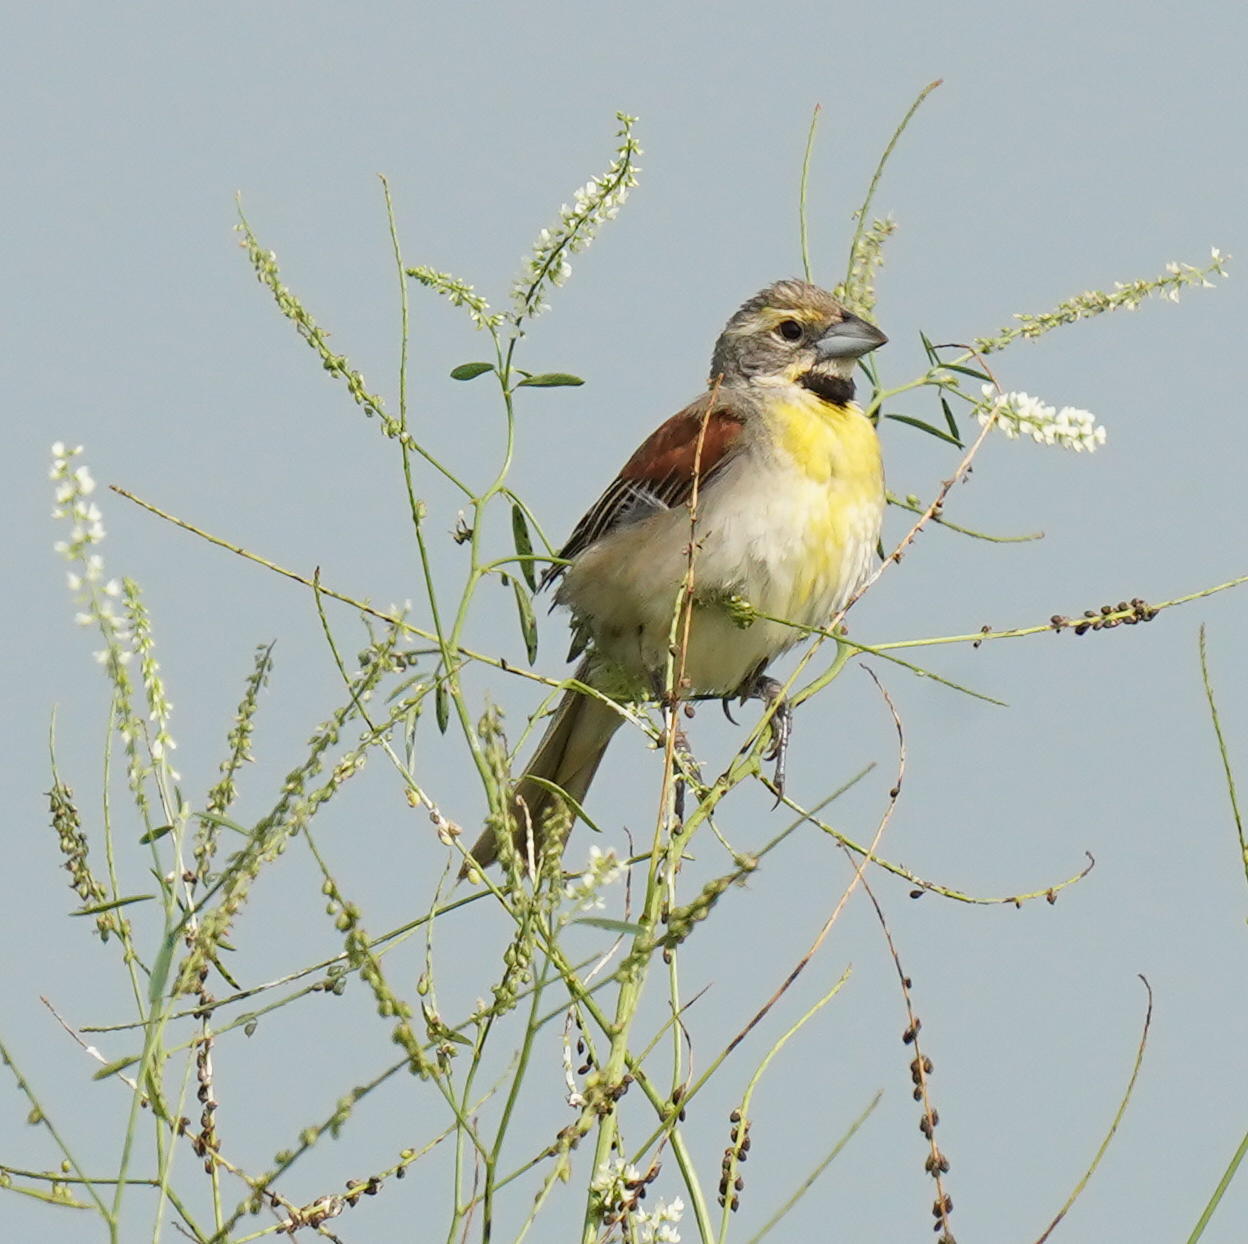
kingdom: Animalia
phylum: Chordata
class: Aves
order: Passeriformes
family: Cardinalidae
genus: Spiza
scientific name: Spiza americana
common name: Dickcissel
